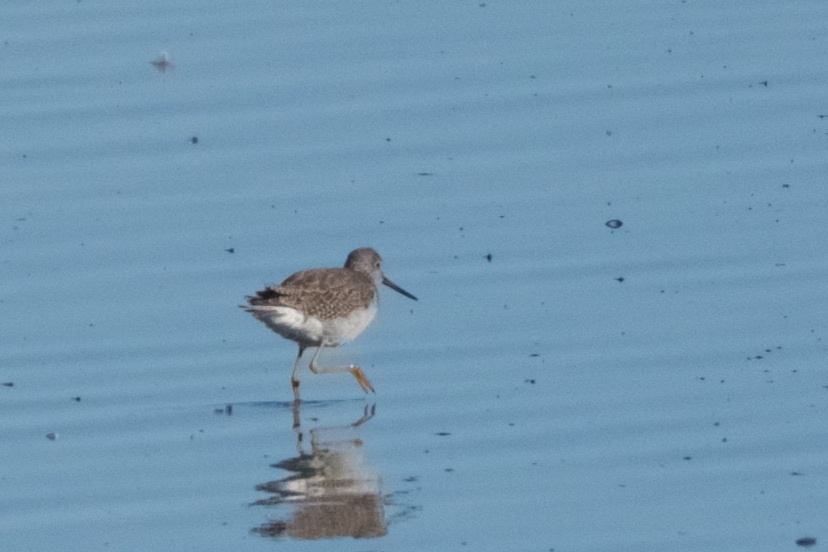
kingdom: Animalia
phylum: Chordata
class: Aves
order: Charadriiformes
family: Scolopacidae
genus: Tringa
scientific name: Tringa melanoleuca
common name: Greater yellowlegs
